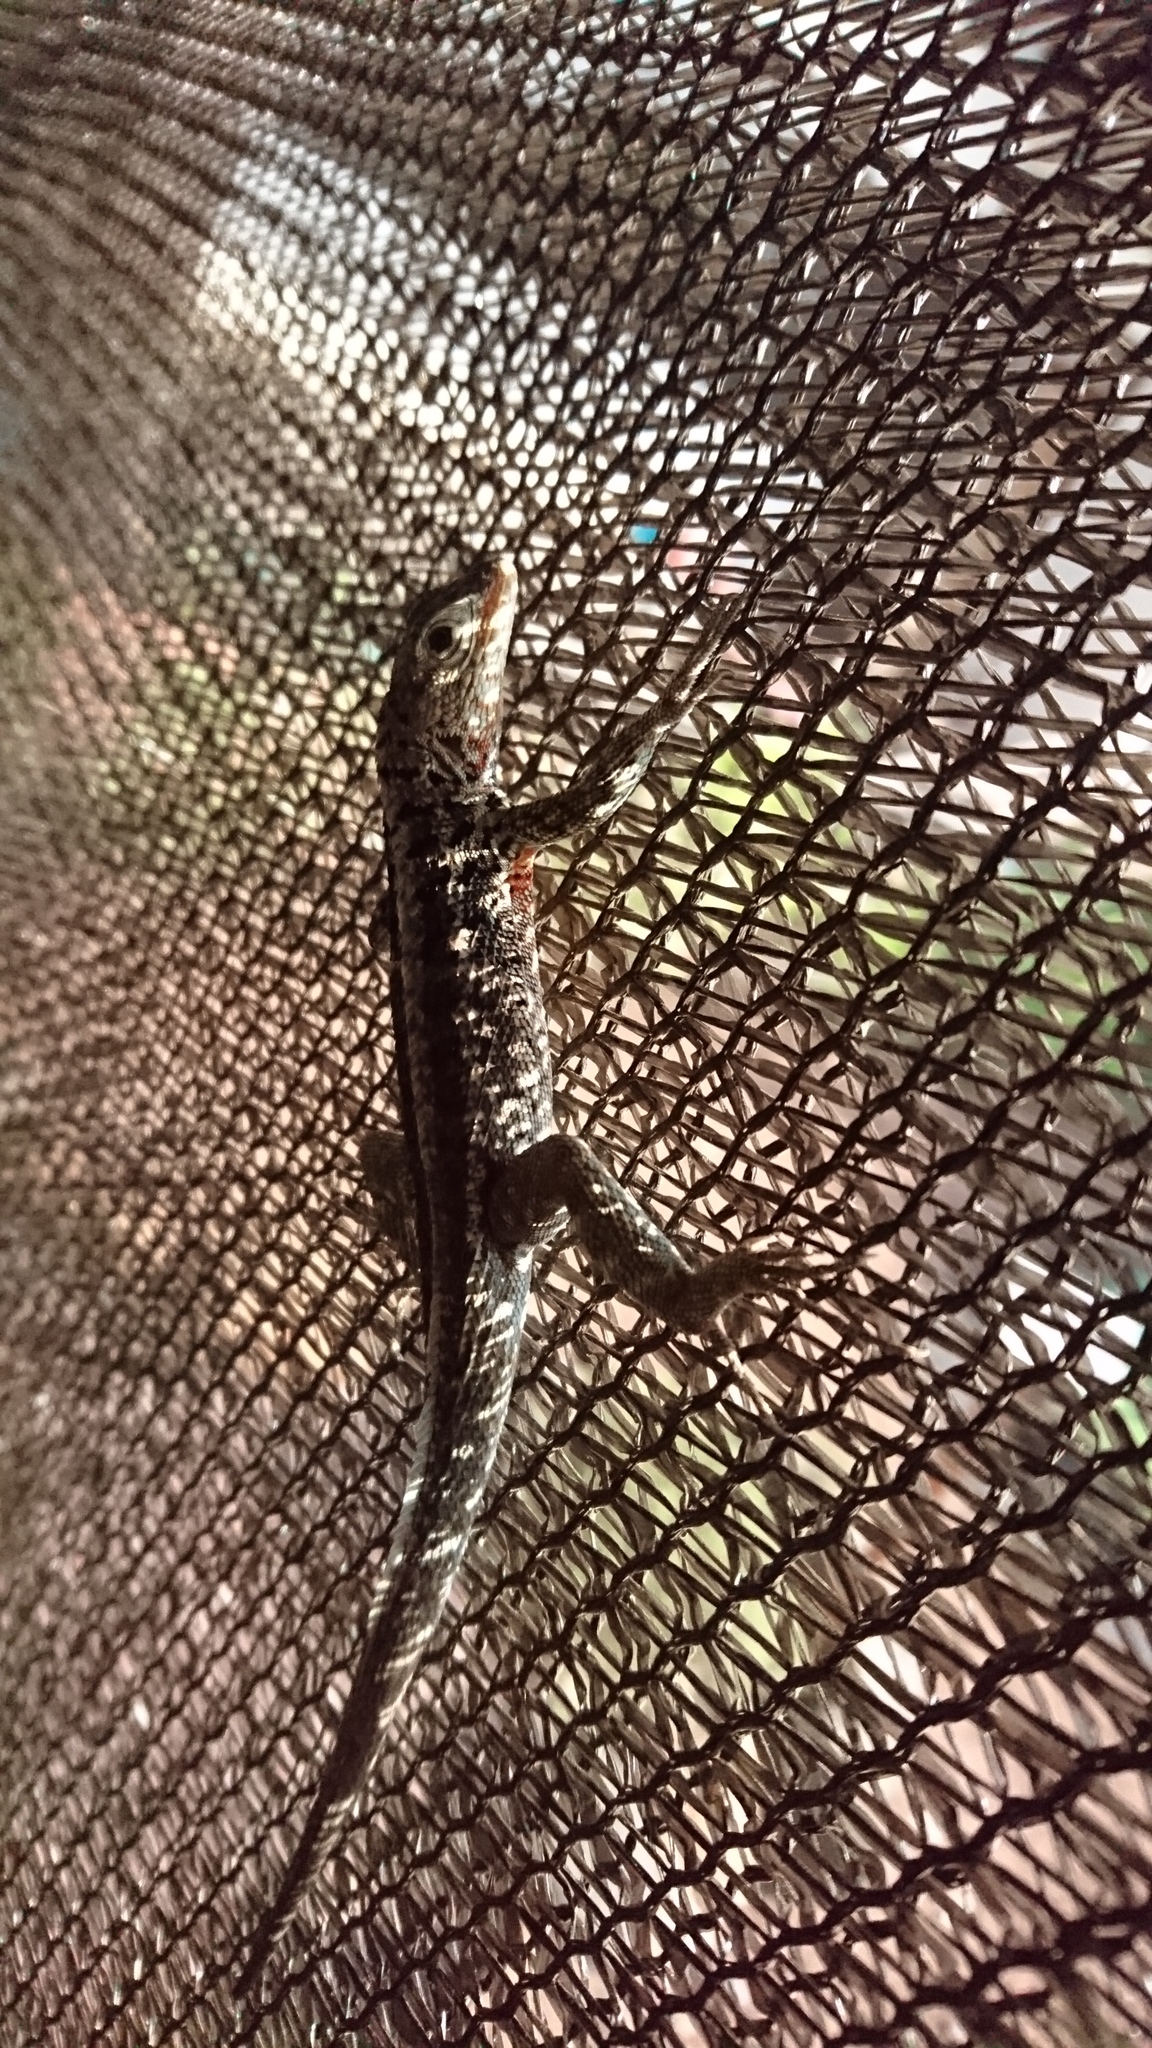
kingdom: Animalia
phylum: Chordata
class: Squamata
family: Tropiduridae
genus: Microlophus
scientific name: Microlophus indefatigabilis
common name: Galapagos lava lizard
